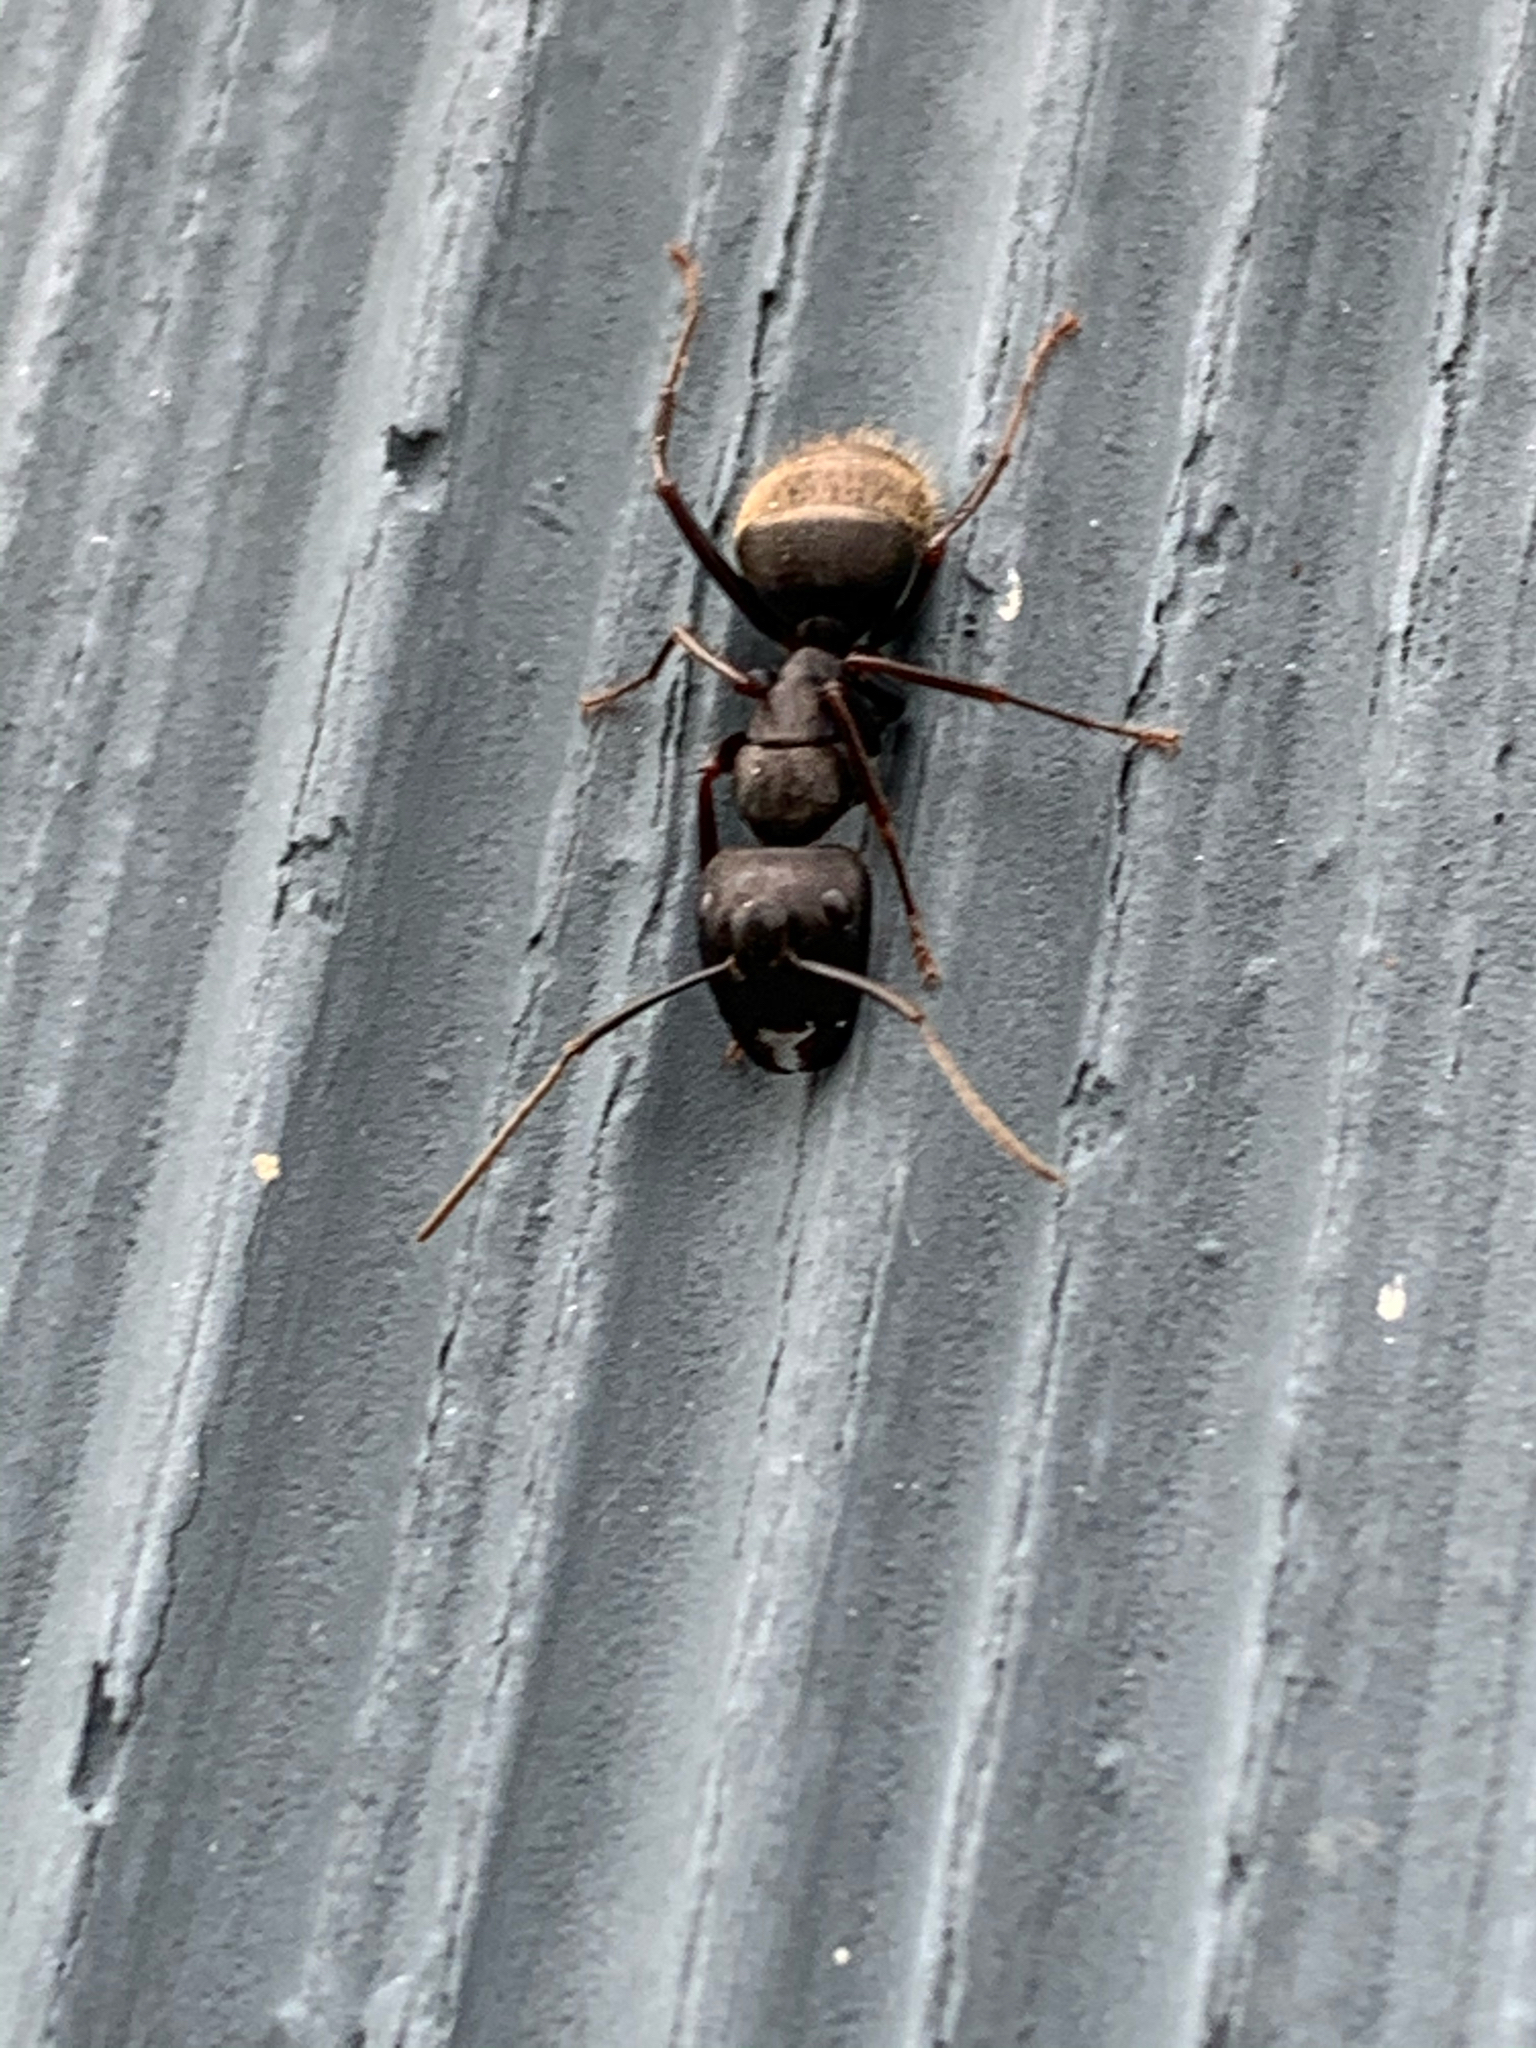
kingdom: Animalia
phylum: Arthropoda
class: Insecta
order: Hymenoptera
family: Formicidae
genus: Camponotus
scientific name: Camponotus pennsylvanicus
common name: Black carpenter ant
